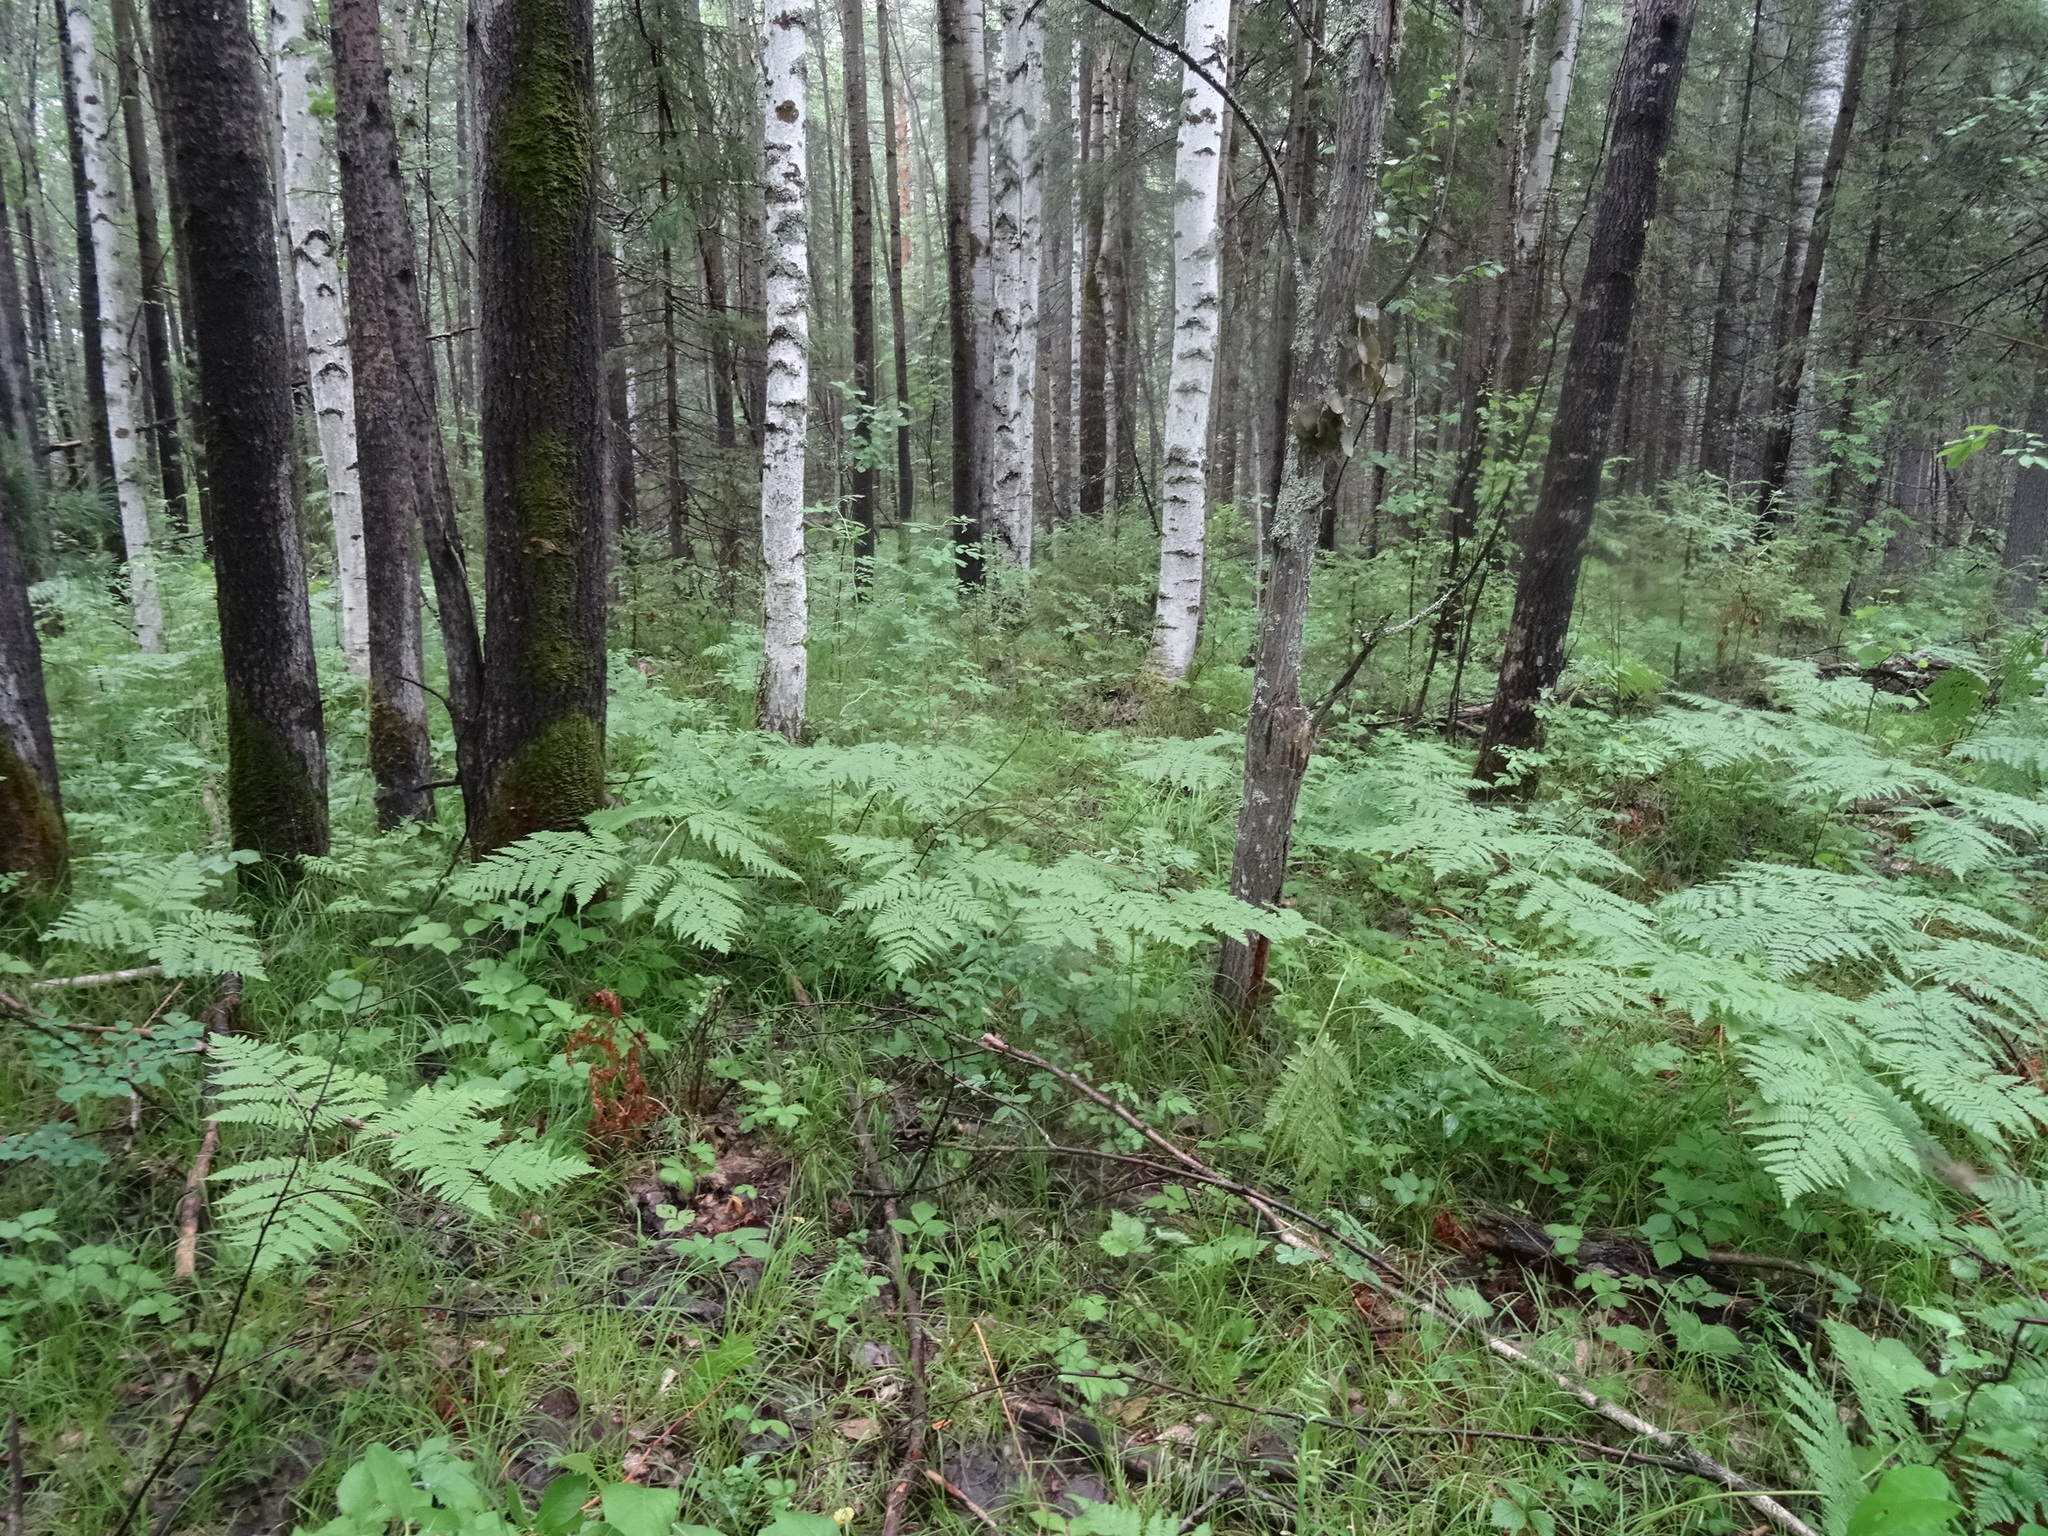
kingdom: Plantae
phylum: Tracheophyta
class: Polypodiopsida
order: Polypodiales
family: Dennstaedtiaceae
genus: Pteridium
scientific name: Pteridium aquilinum
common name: Bracken
